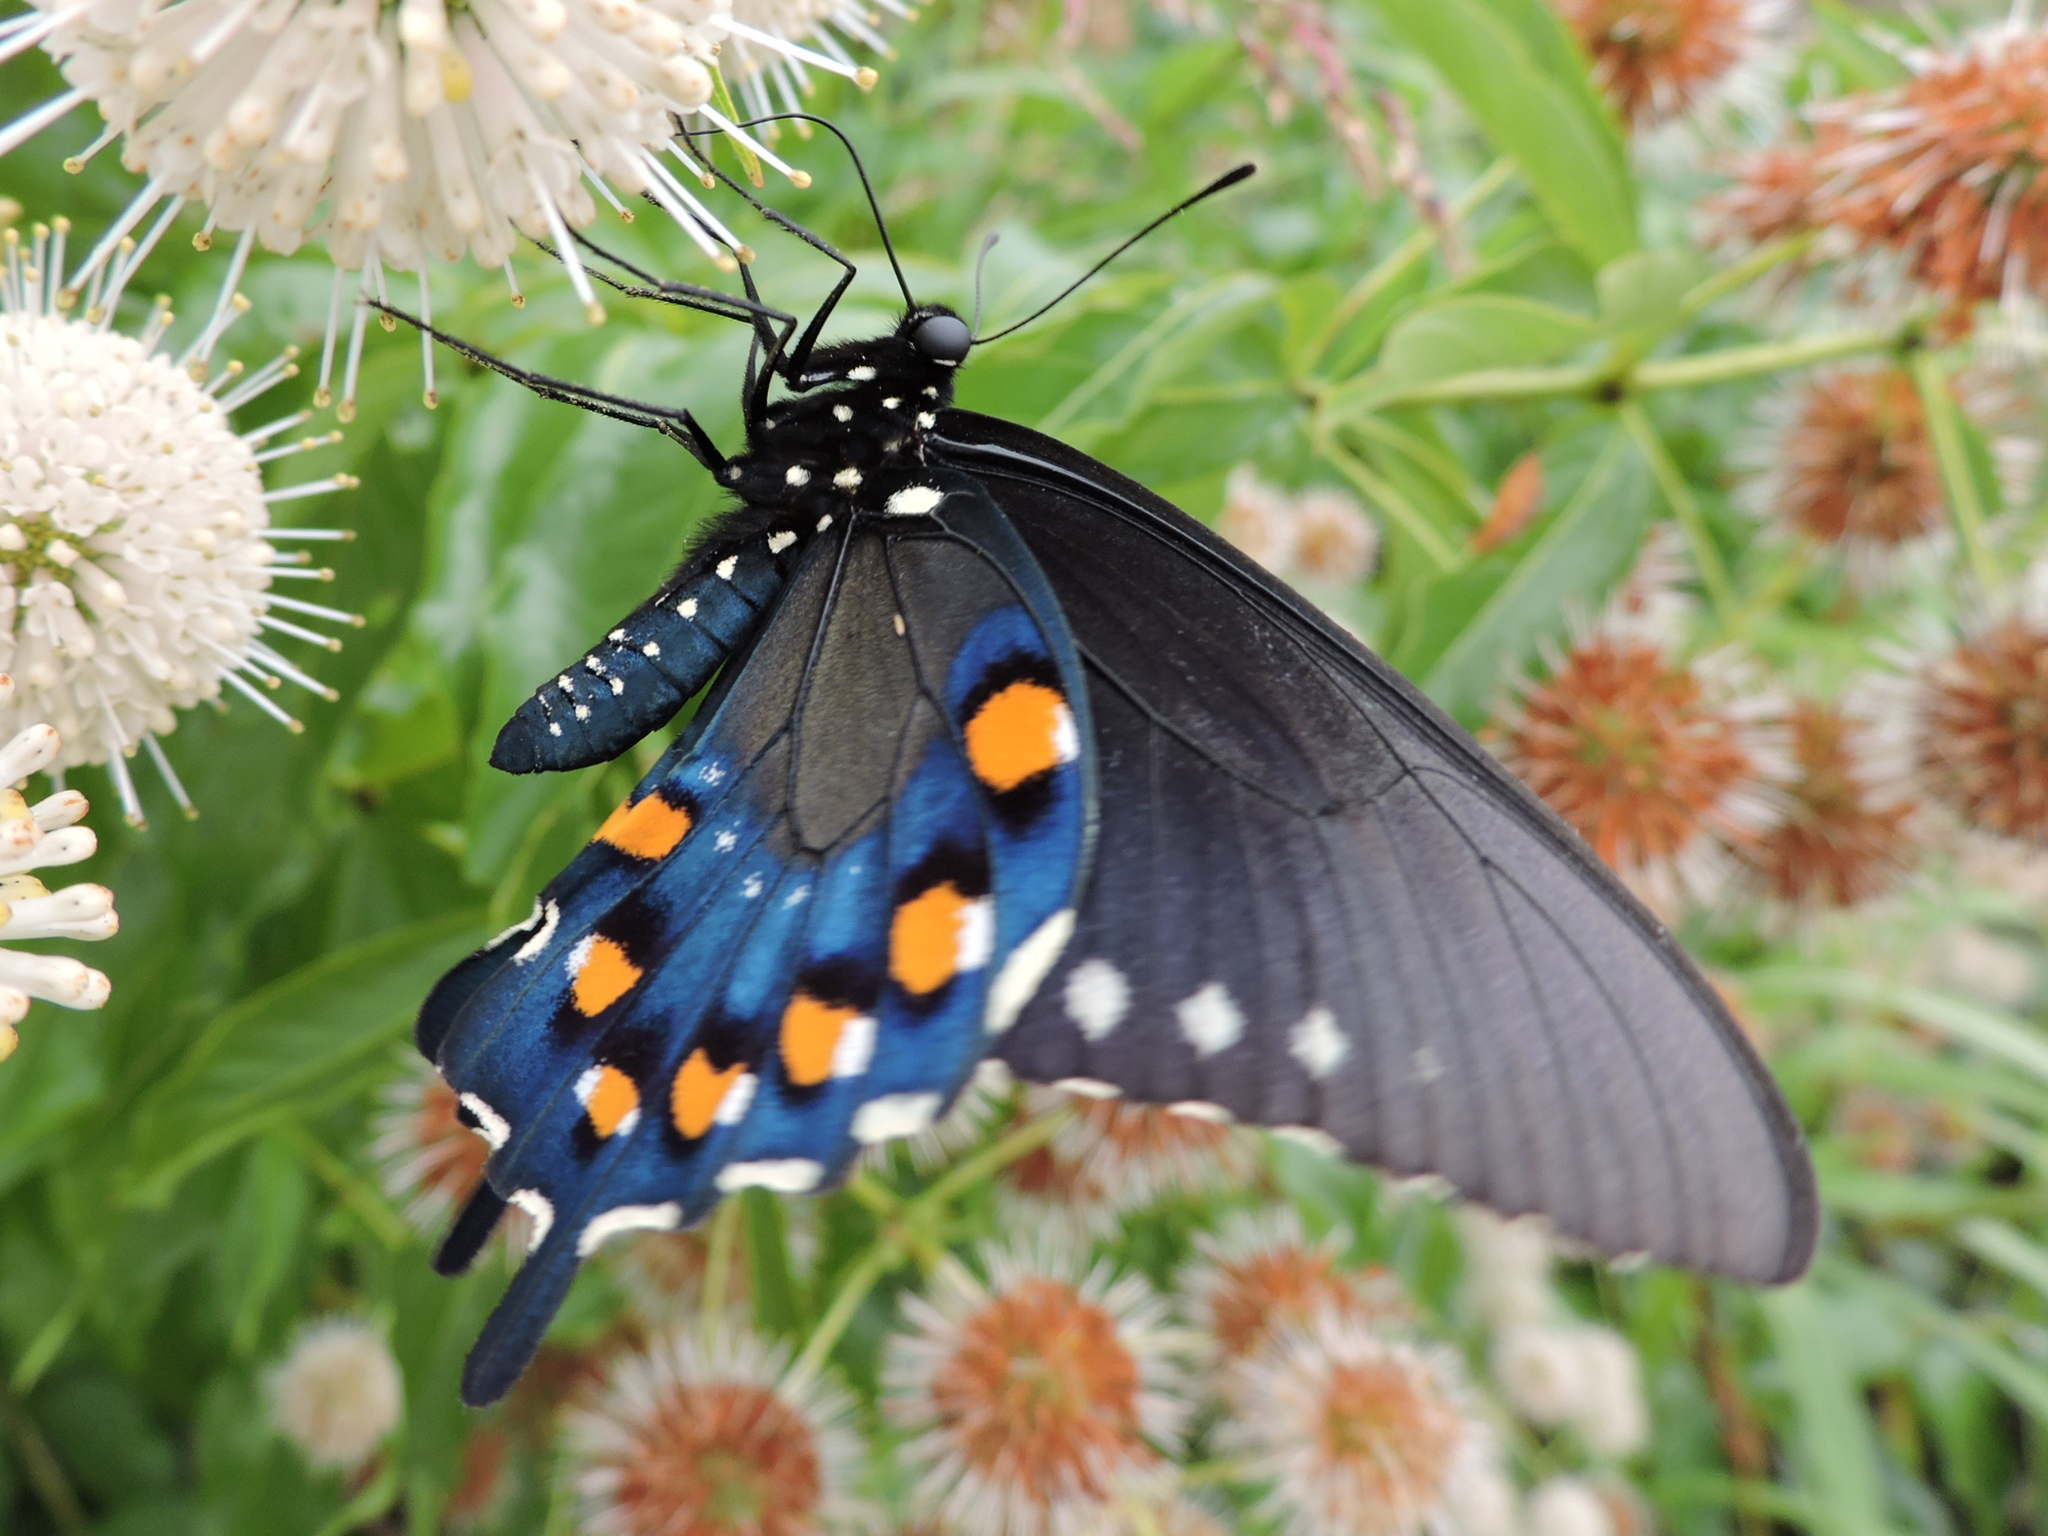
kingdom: Animalia
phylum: Arthropoda
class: Insecta
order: Lepidoptera
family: Papilionidae
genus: Battus
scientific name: Battus philenor
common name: Pipevine swallowtail
